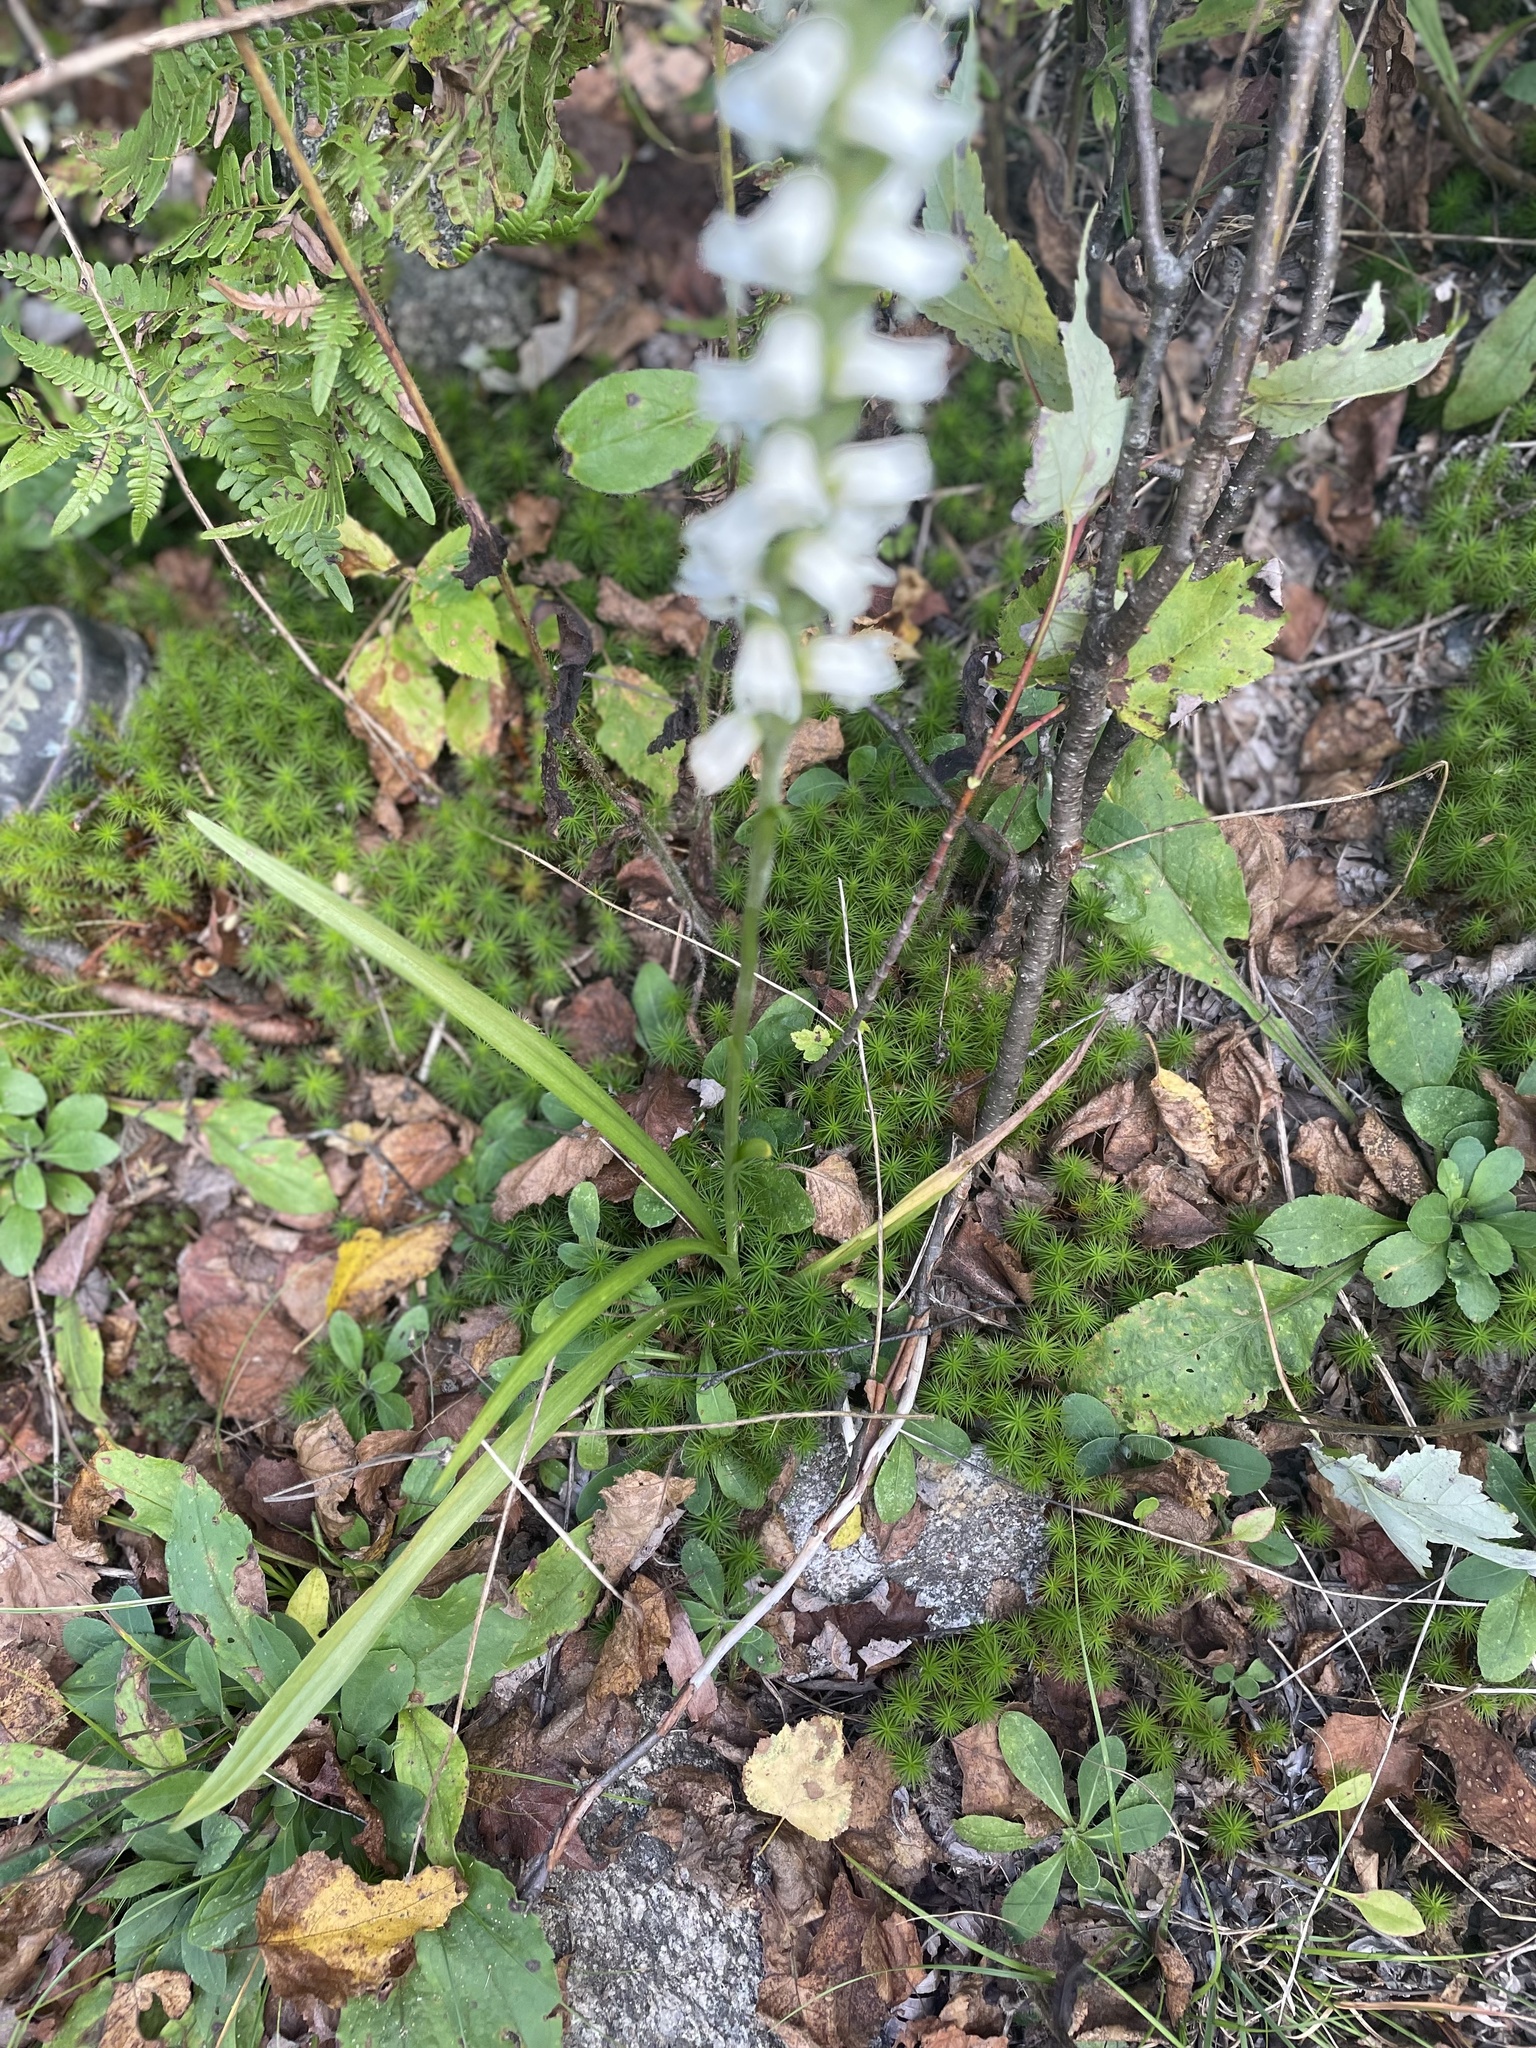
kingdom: Plantae
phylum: Tracheophyta
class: Liliopsida
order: Asparagales
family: Orchidaceae
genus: Spiranthes
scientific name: Spiranthes ochroleuca
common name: Yellow ladies'-tresses
